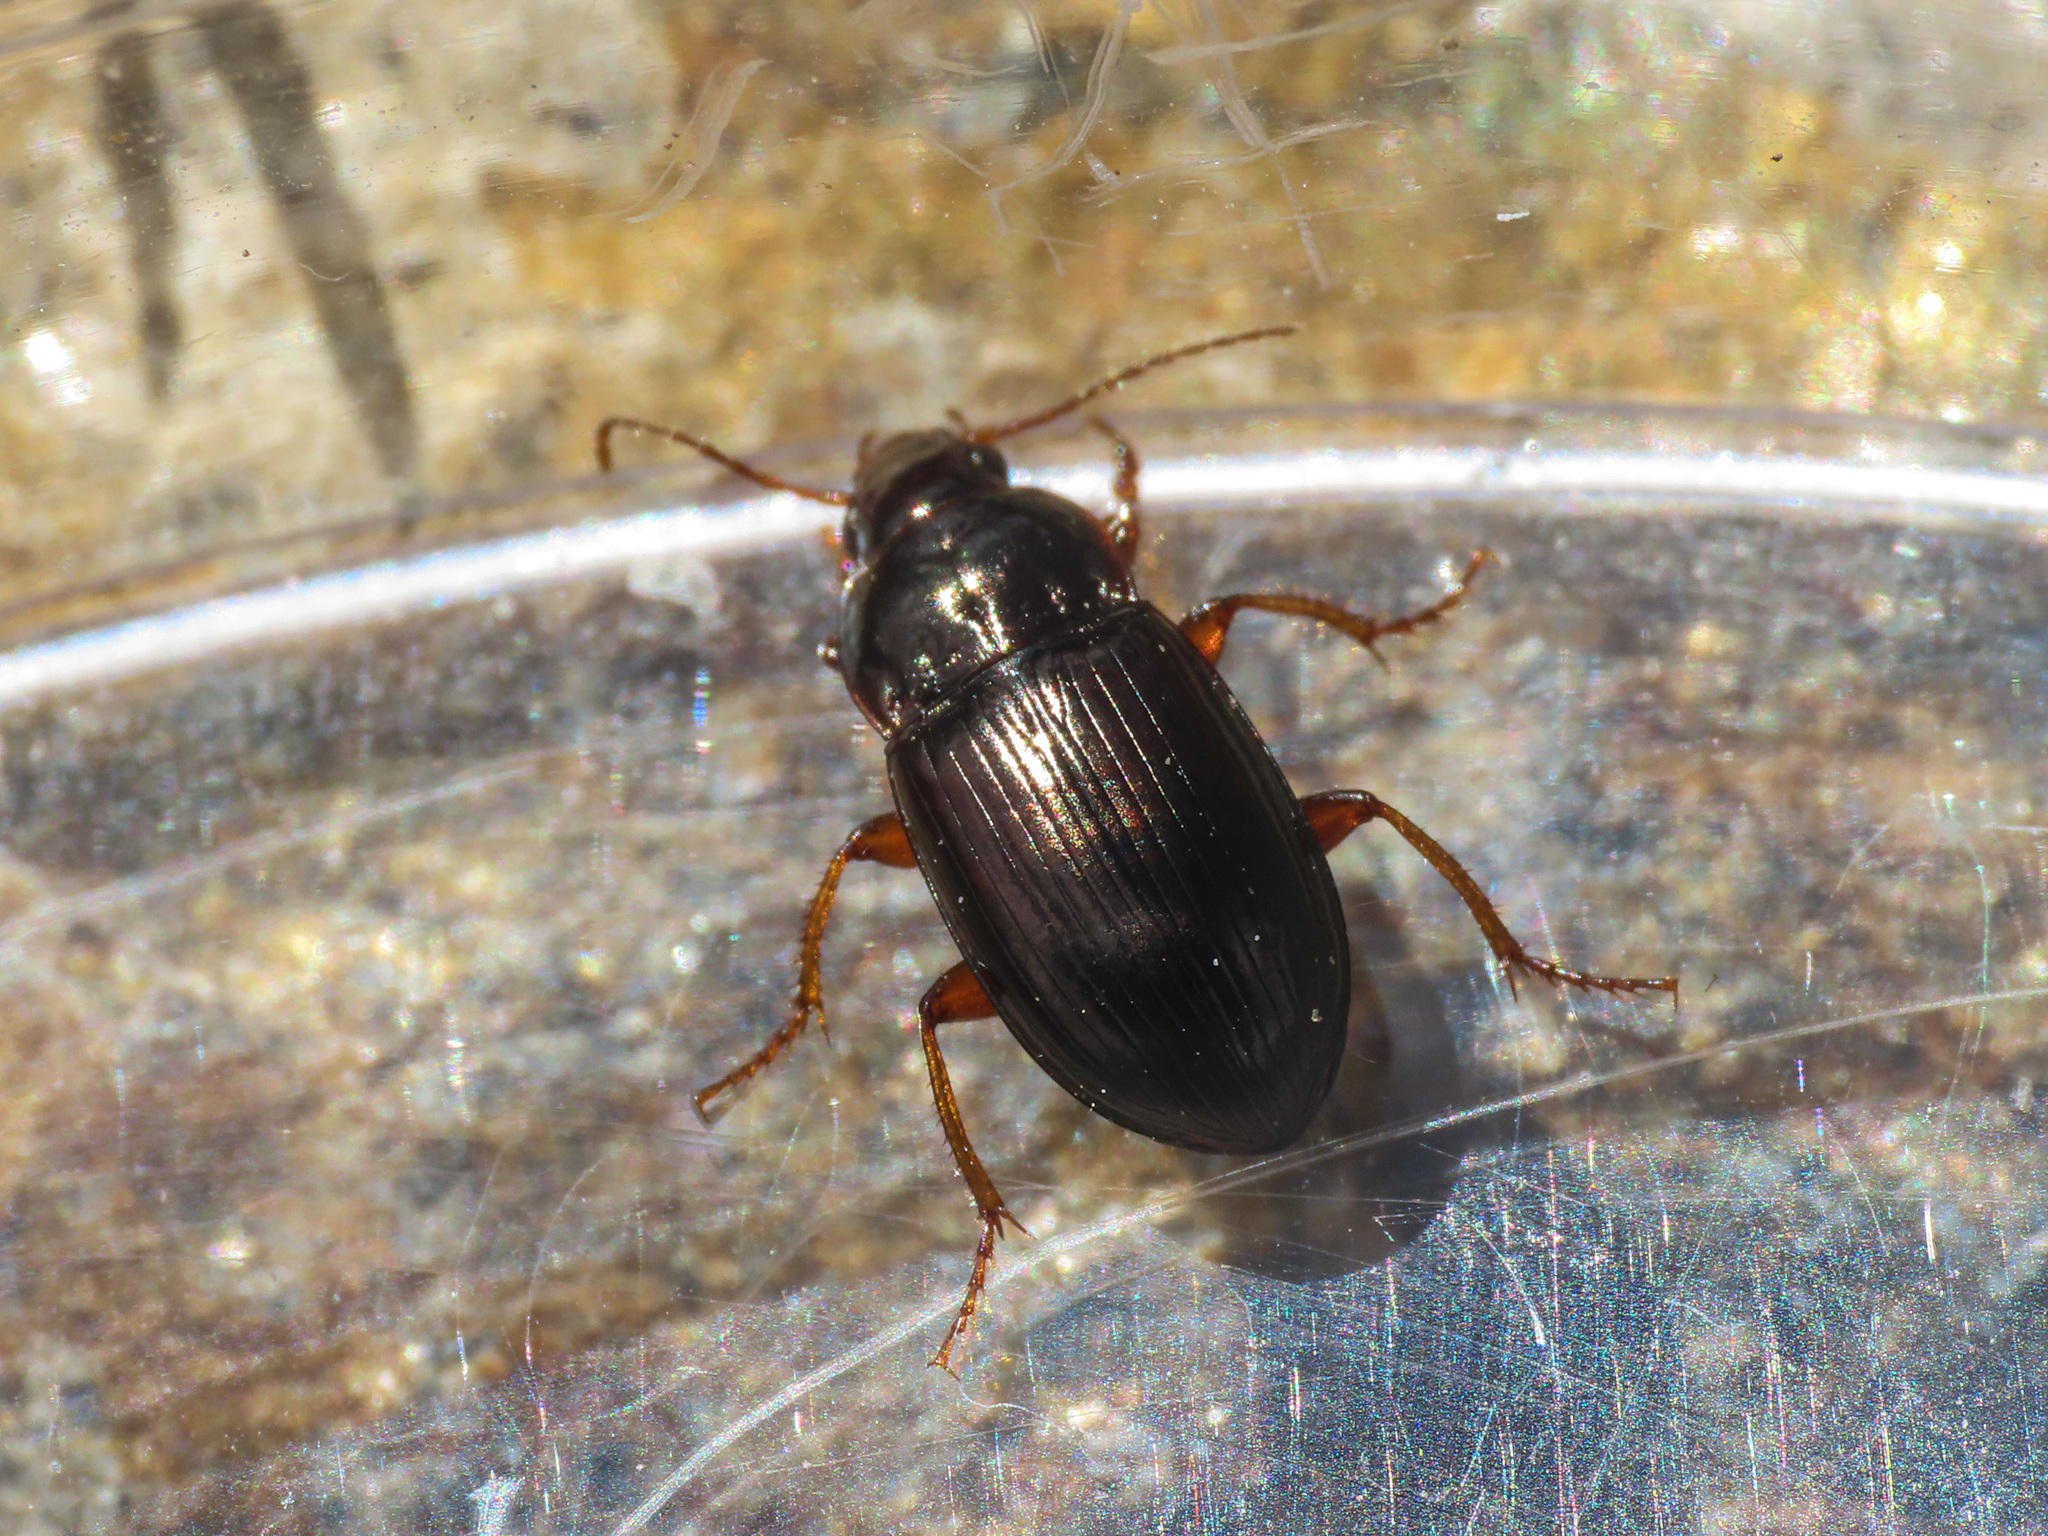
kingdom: Animalia
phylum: Arthropoda
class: Insecta
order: Coleoptera
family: Carabidae
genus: Amara
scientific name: Amara quenseli
